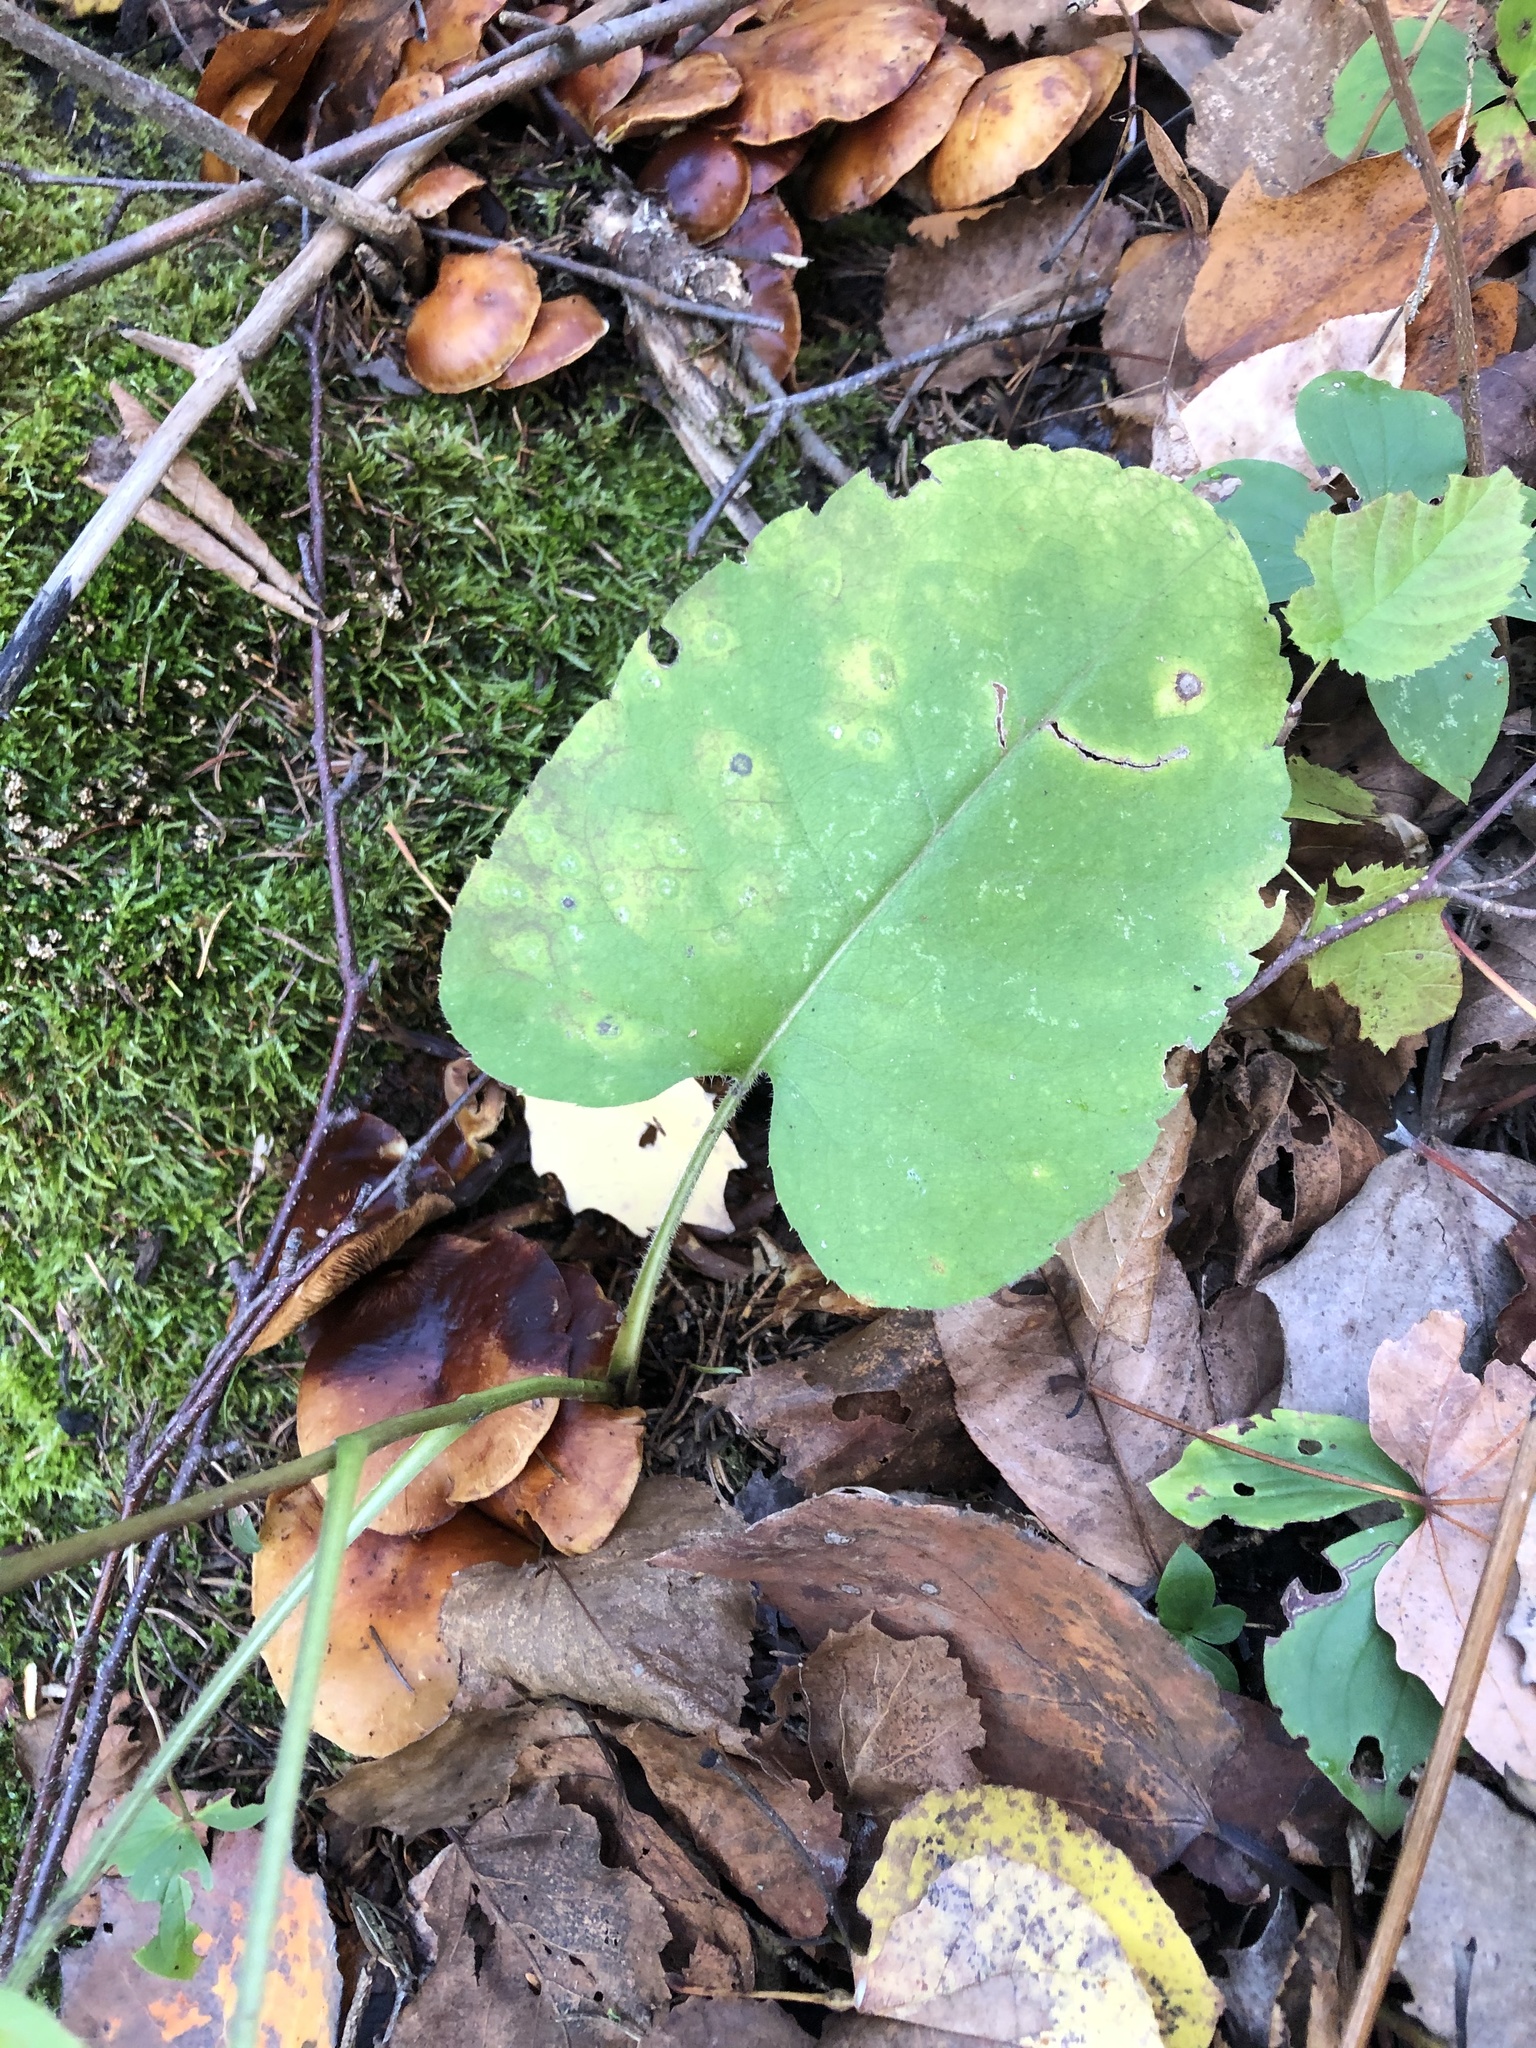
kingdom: Plantae
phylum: Tracheophyta
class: Magnoliopsida
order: Asterales
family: Asteraceae
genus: Eurybia
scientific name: Eurybia macrophylla
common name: Big-leaved aster
